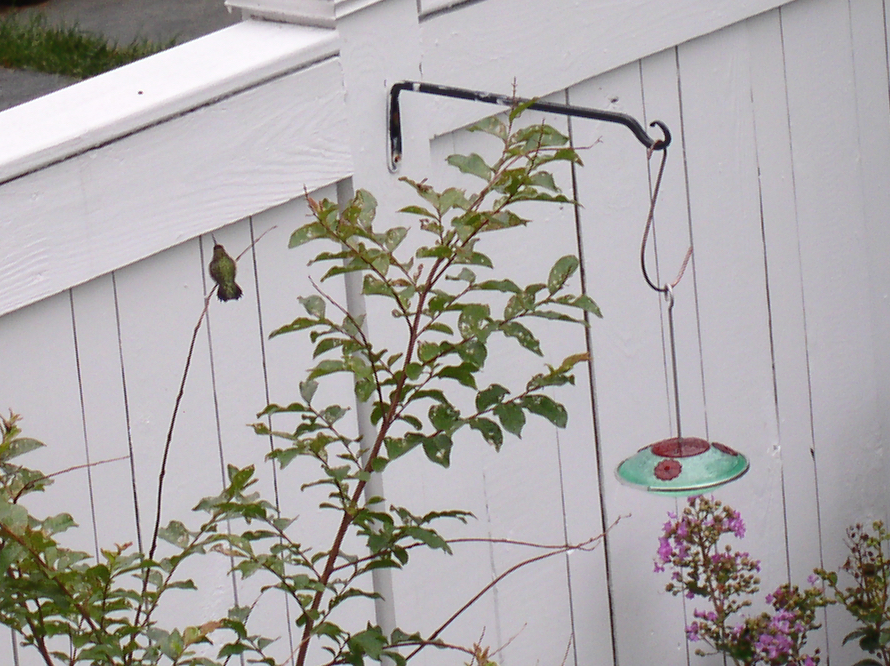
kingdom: Animalia
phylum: Chordata
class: Aves
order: Apodiformes
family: Trochilidae
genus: Archilochus
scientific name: Archilochus colubris
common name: Ruby-throated hummingbird
